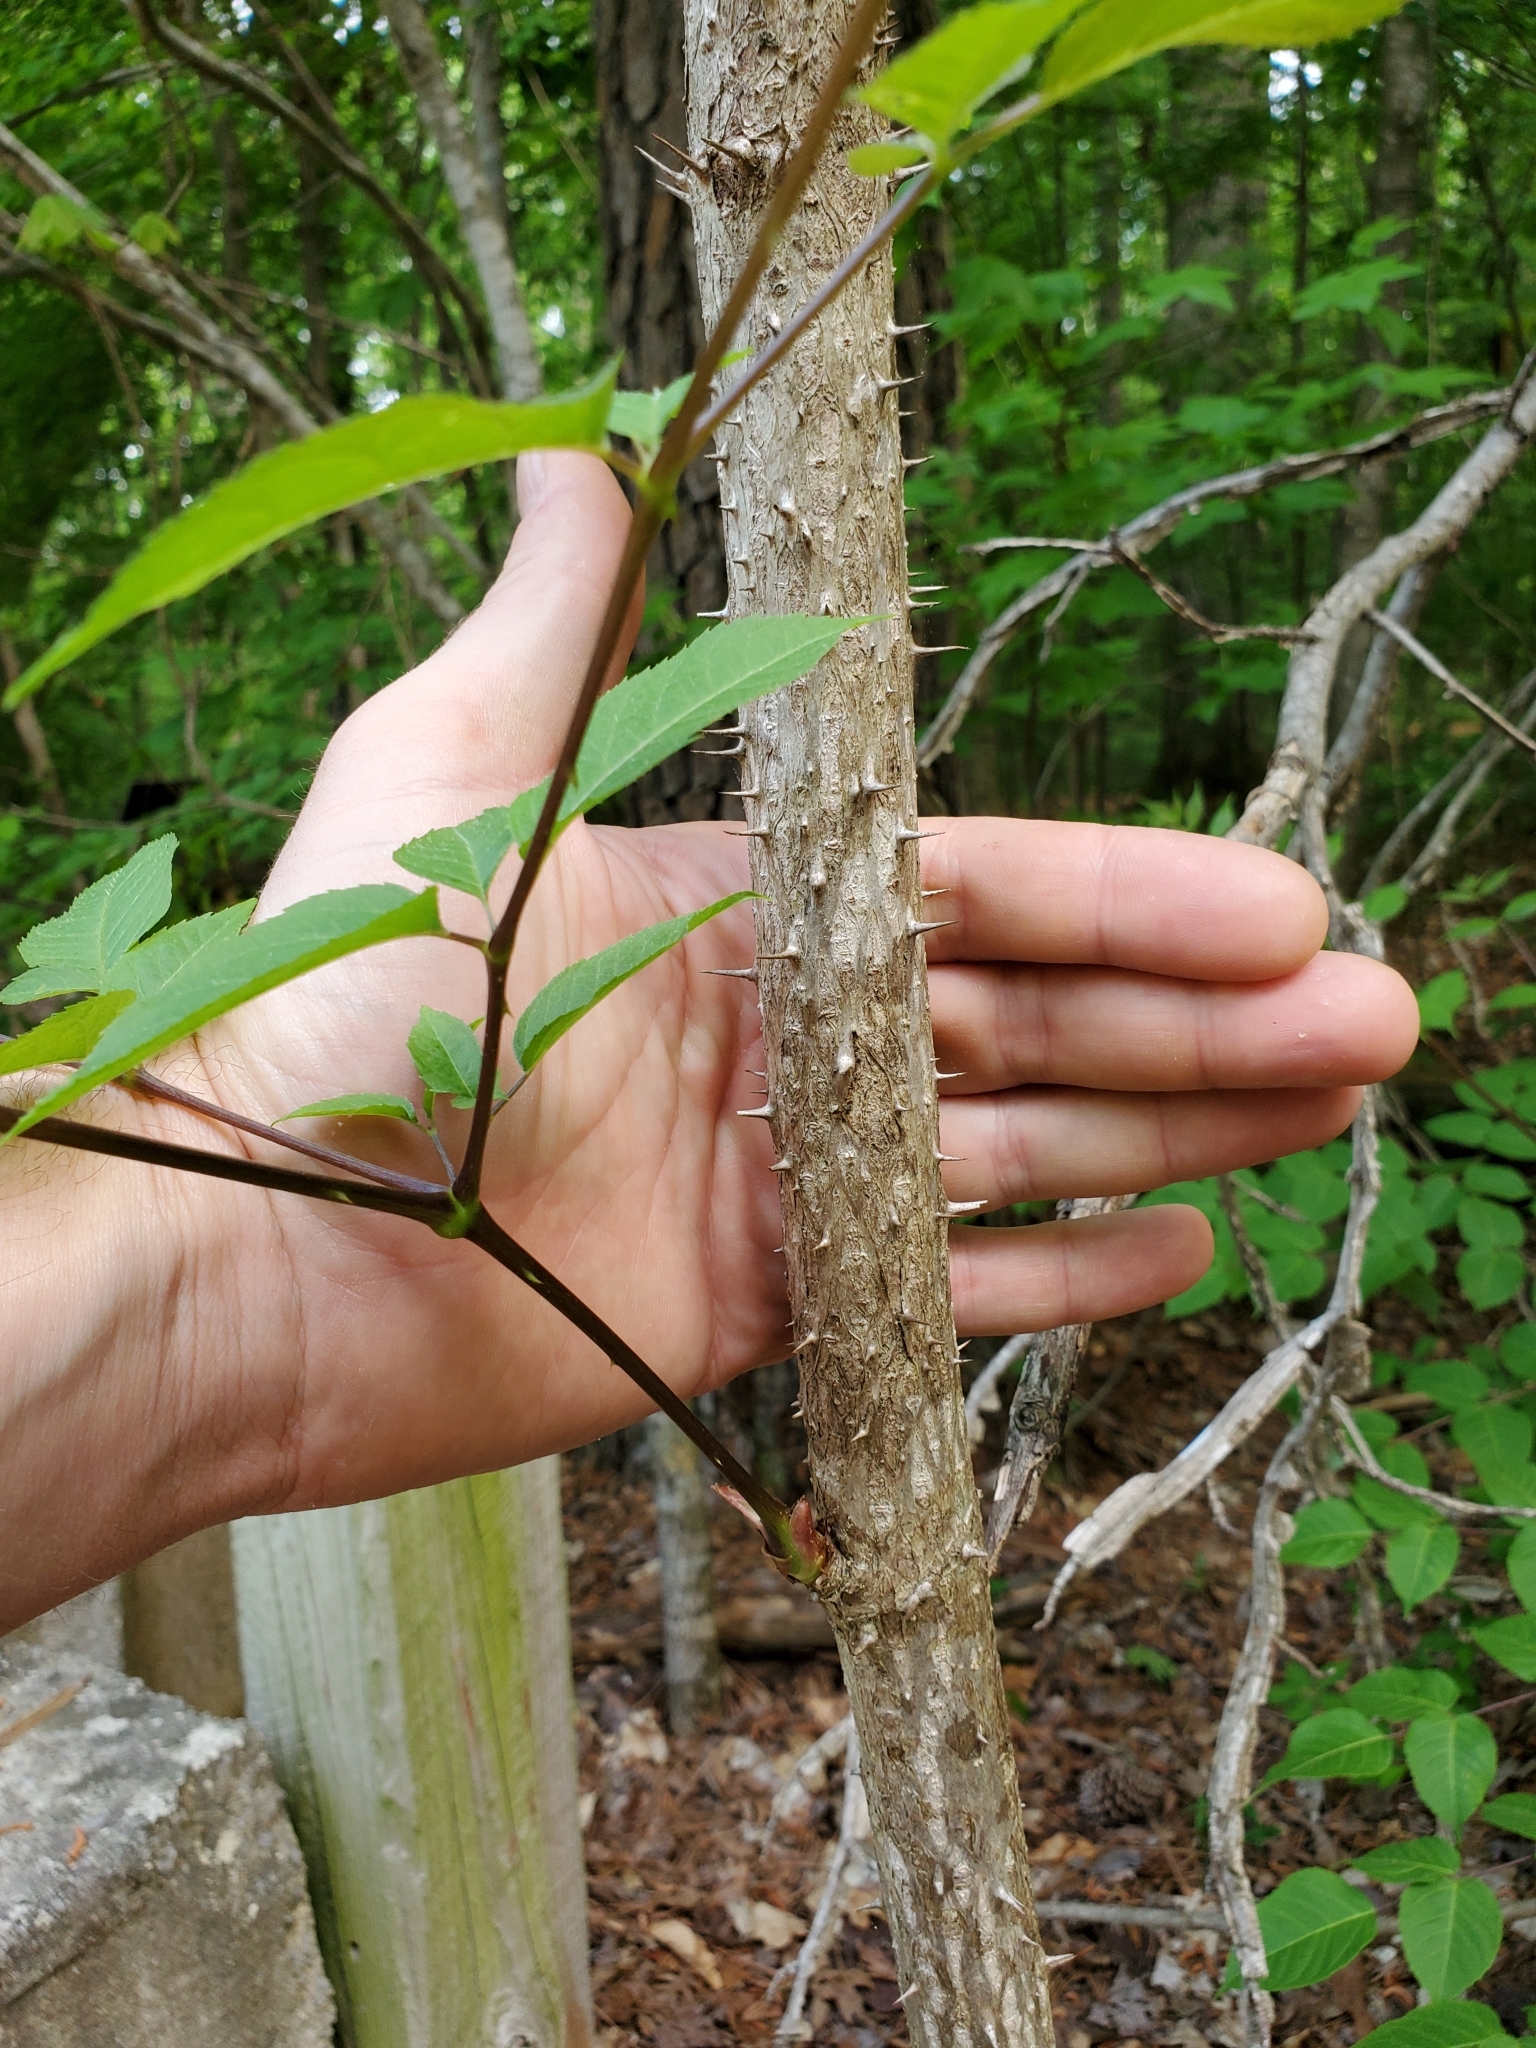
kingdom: Plantae
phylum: Tracheophyta
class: Magnoliopsida
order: Apiales
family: Araliaceae
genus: Aralia
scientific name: Aralia spinosa
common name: Hercules'-club
